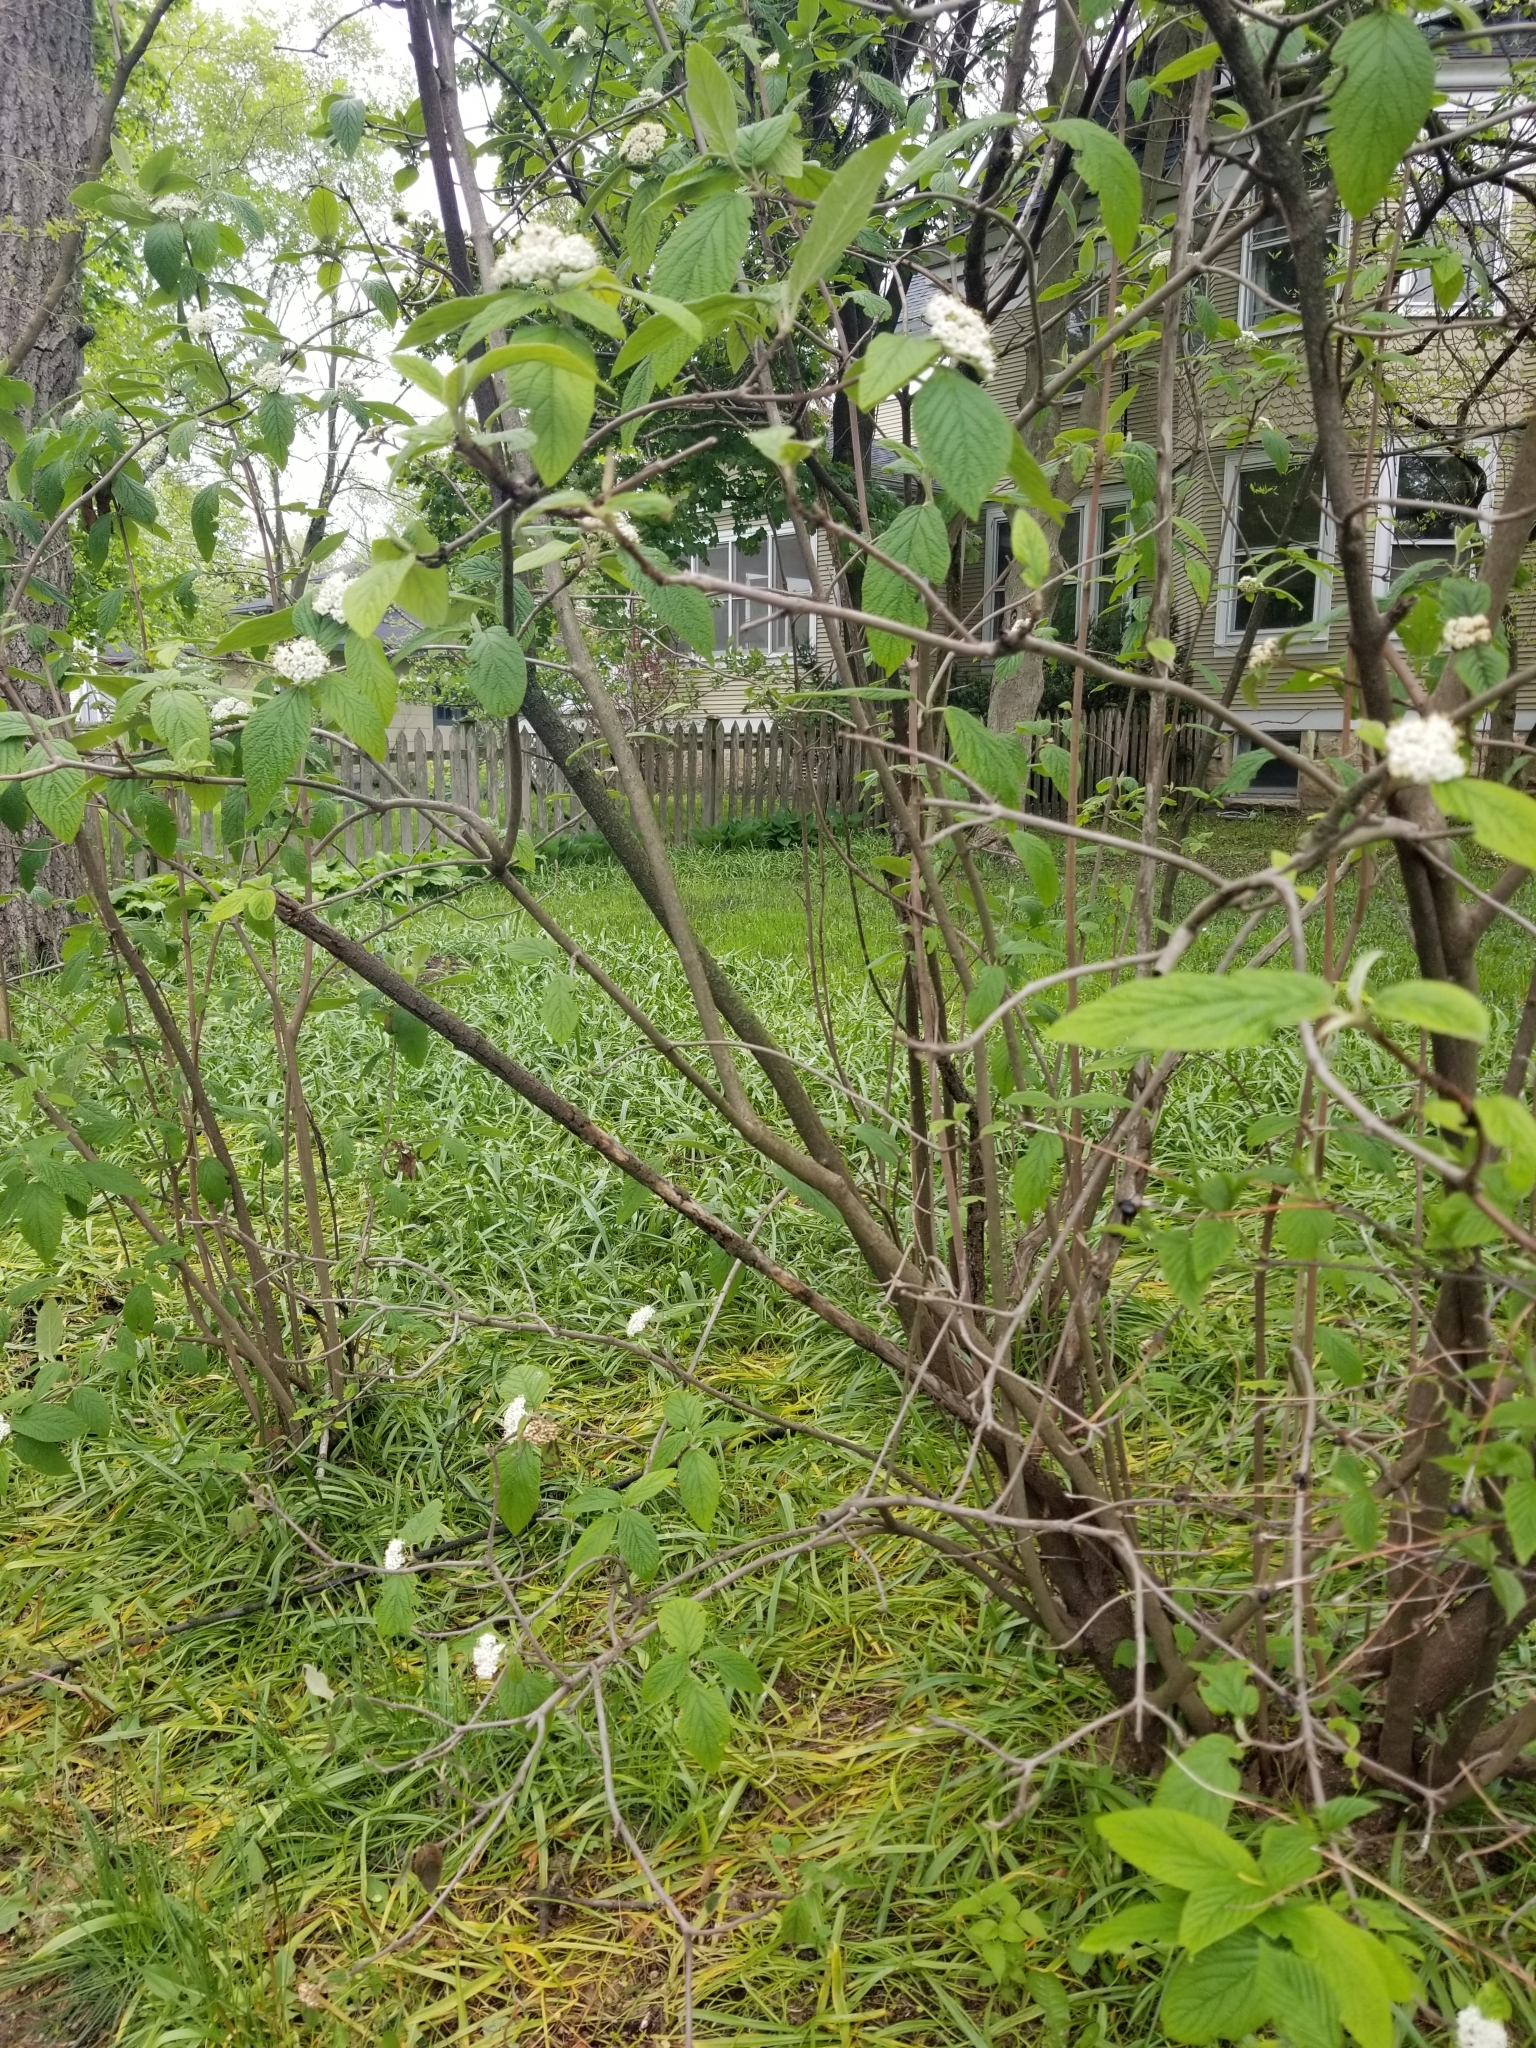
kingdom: Plantae
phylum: Tracheophyta
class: Magnoliopsida
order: Dipsacales
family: Viburnaceae
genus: Viburnum
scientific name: Viburnum lantana
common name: Wayfaring tree
